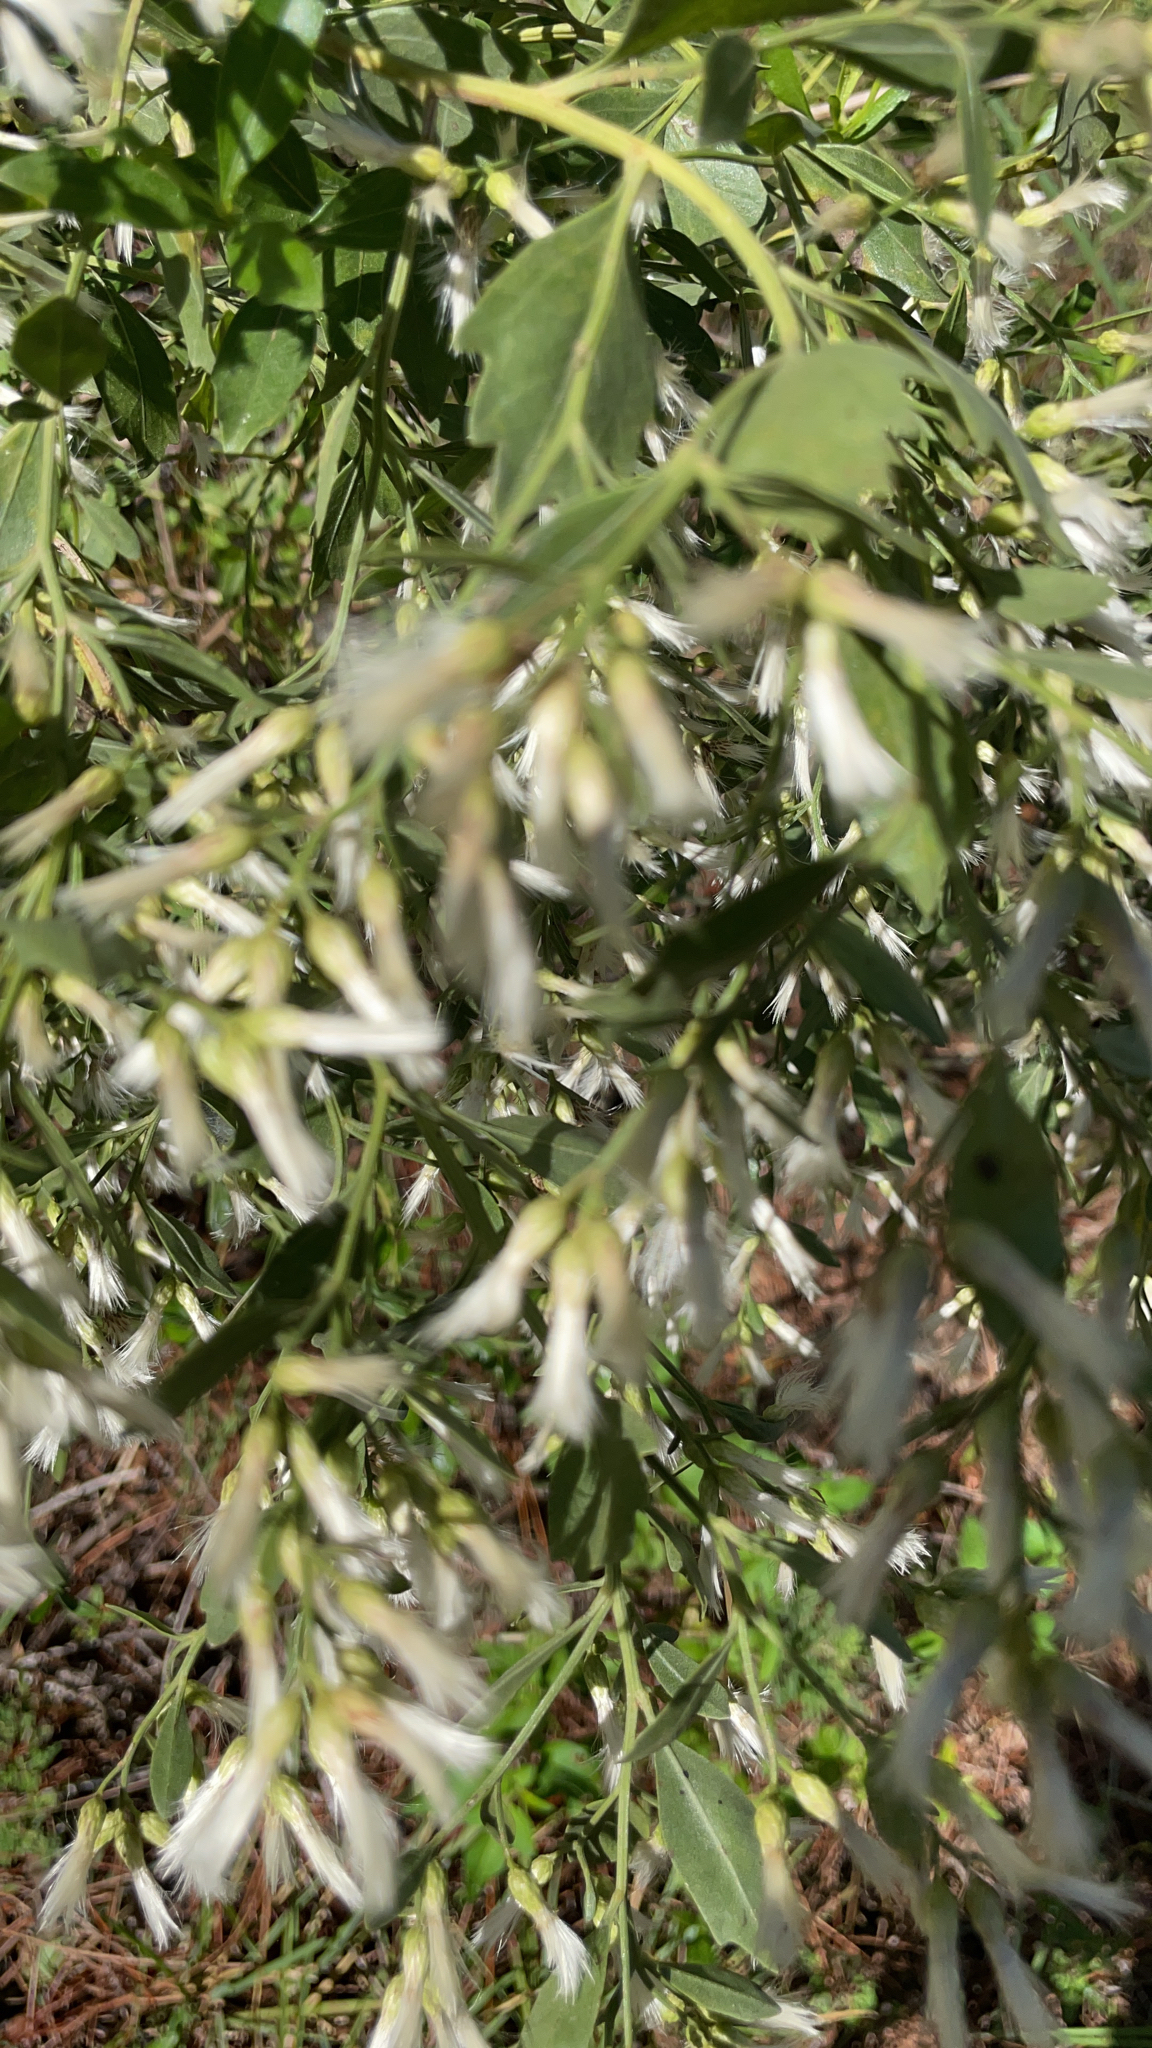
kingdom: Plantae
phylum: Tracheophyta
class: Magnoliopsida
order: Asterales
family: Asteraceae
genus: Baccharis
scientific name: Baccharis halimifolia
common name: Eastern baccharis
